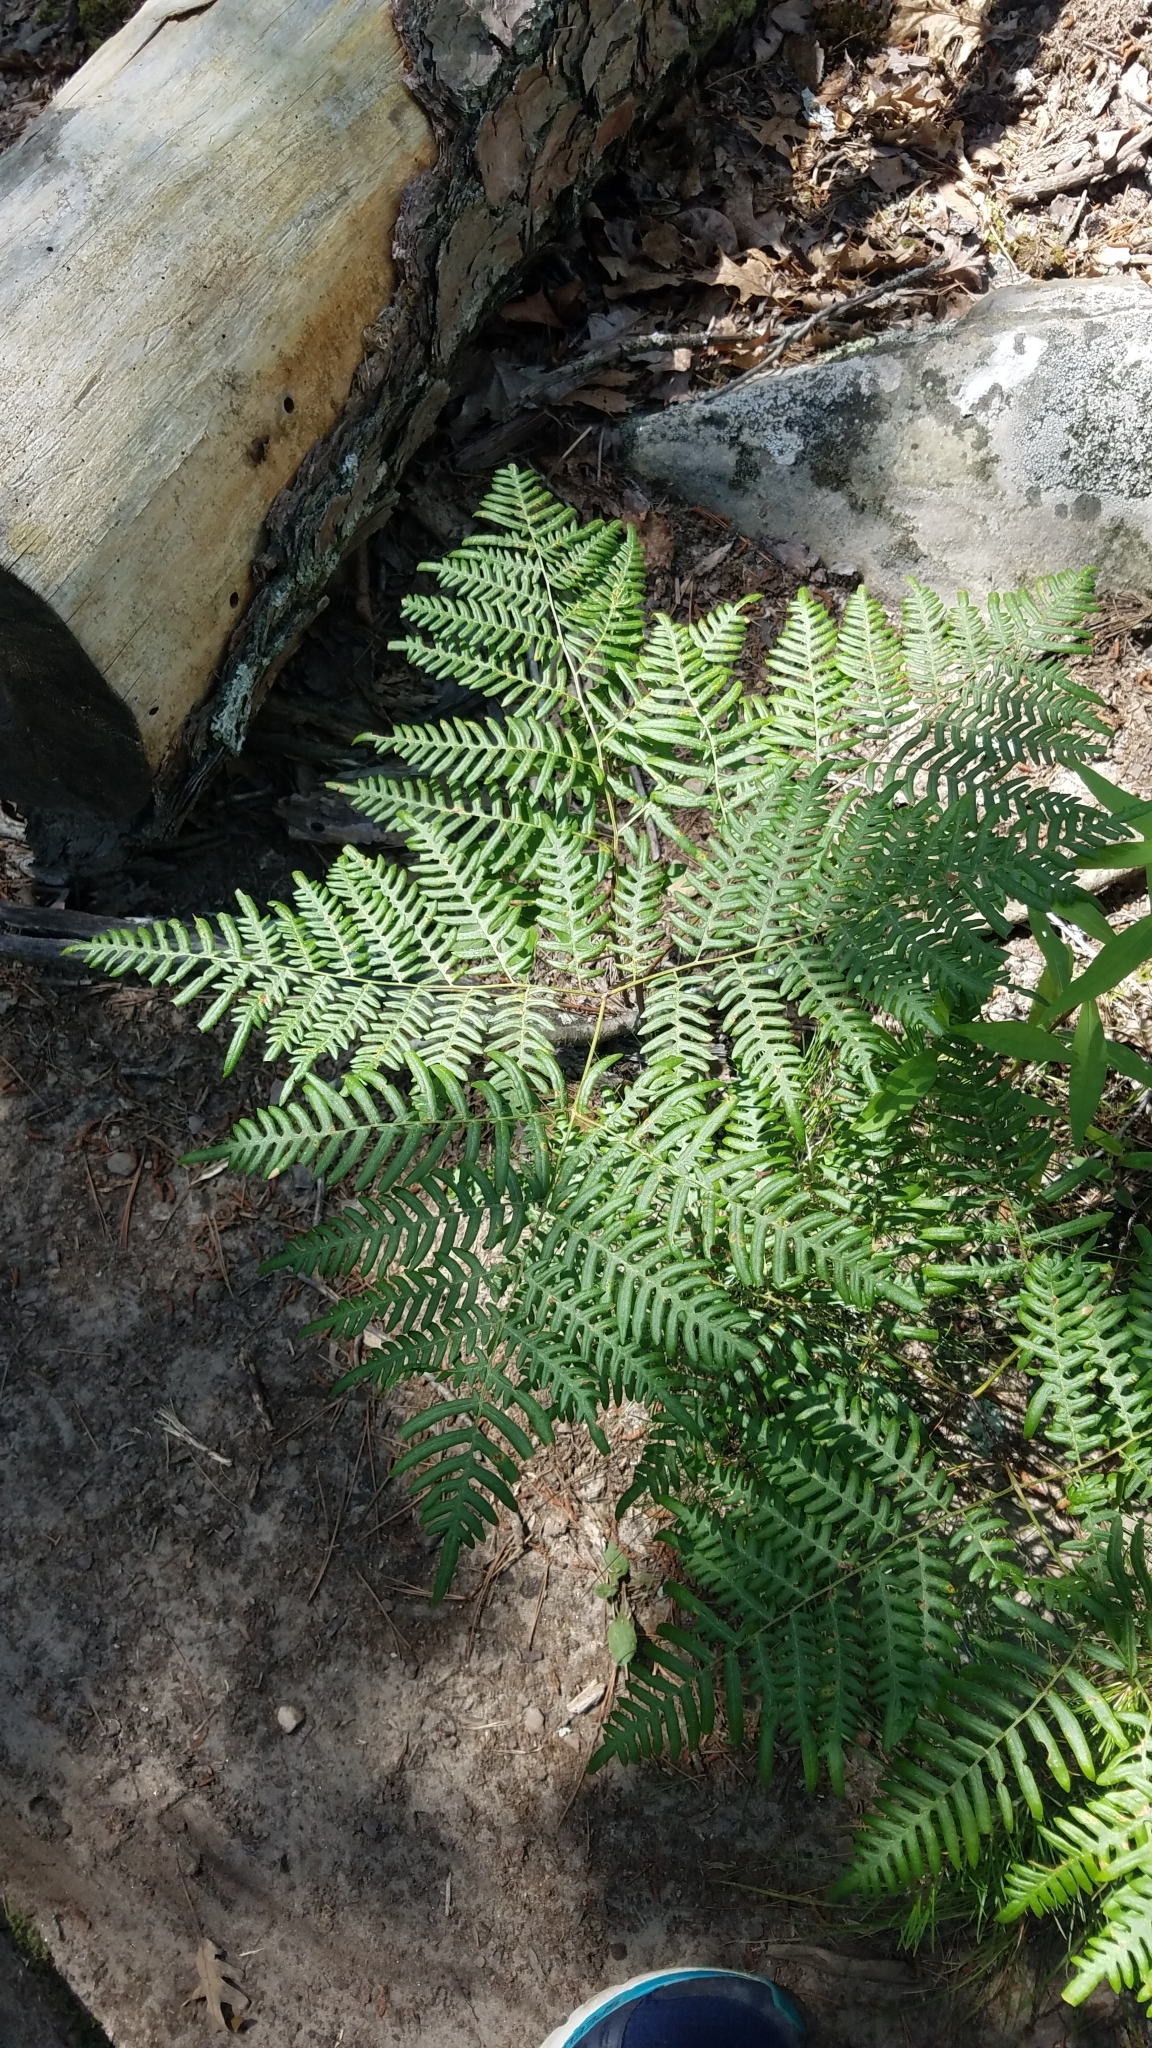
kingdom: Plantae
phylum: Tracheophyta
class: Polypodiopsida
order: Polypodiales
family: Dennstaedtiaceae
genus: Pteridium
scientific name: Pteridium aquilinum
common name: Bracken
